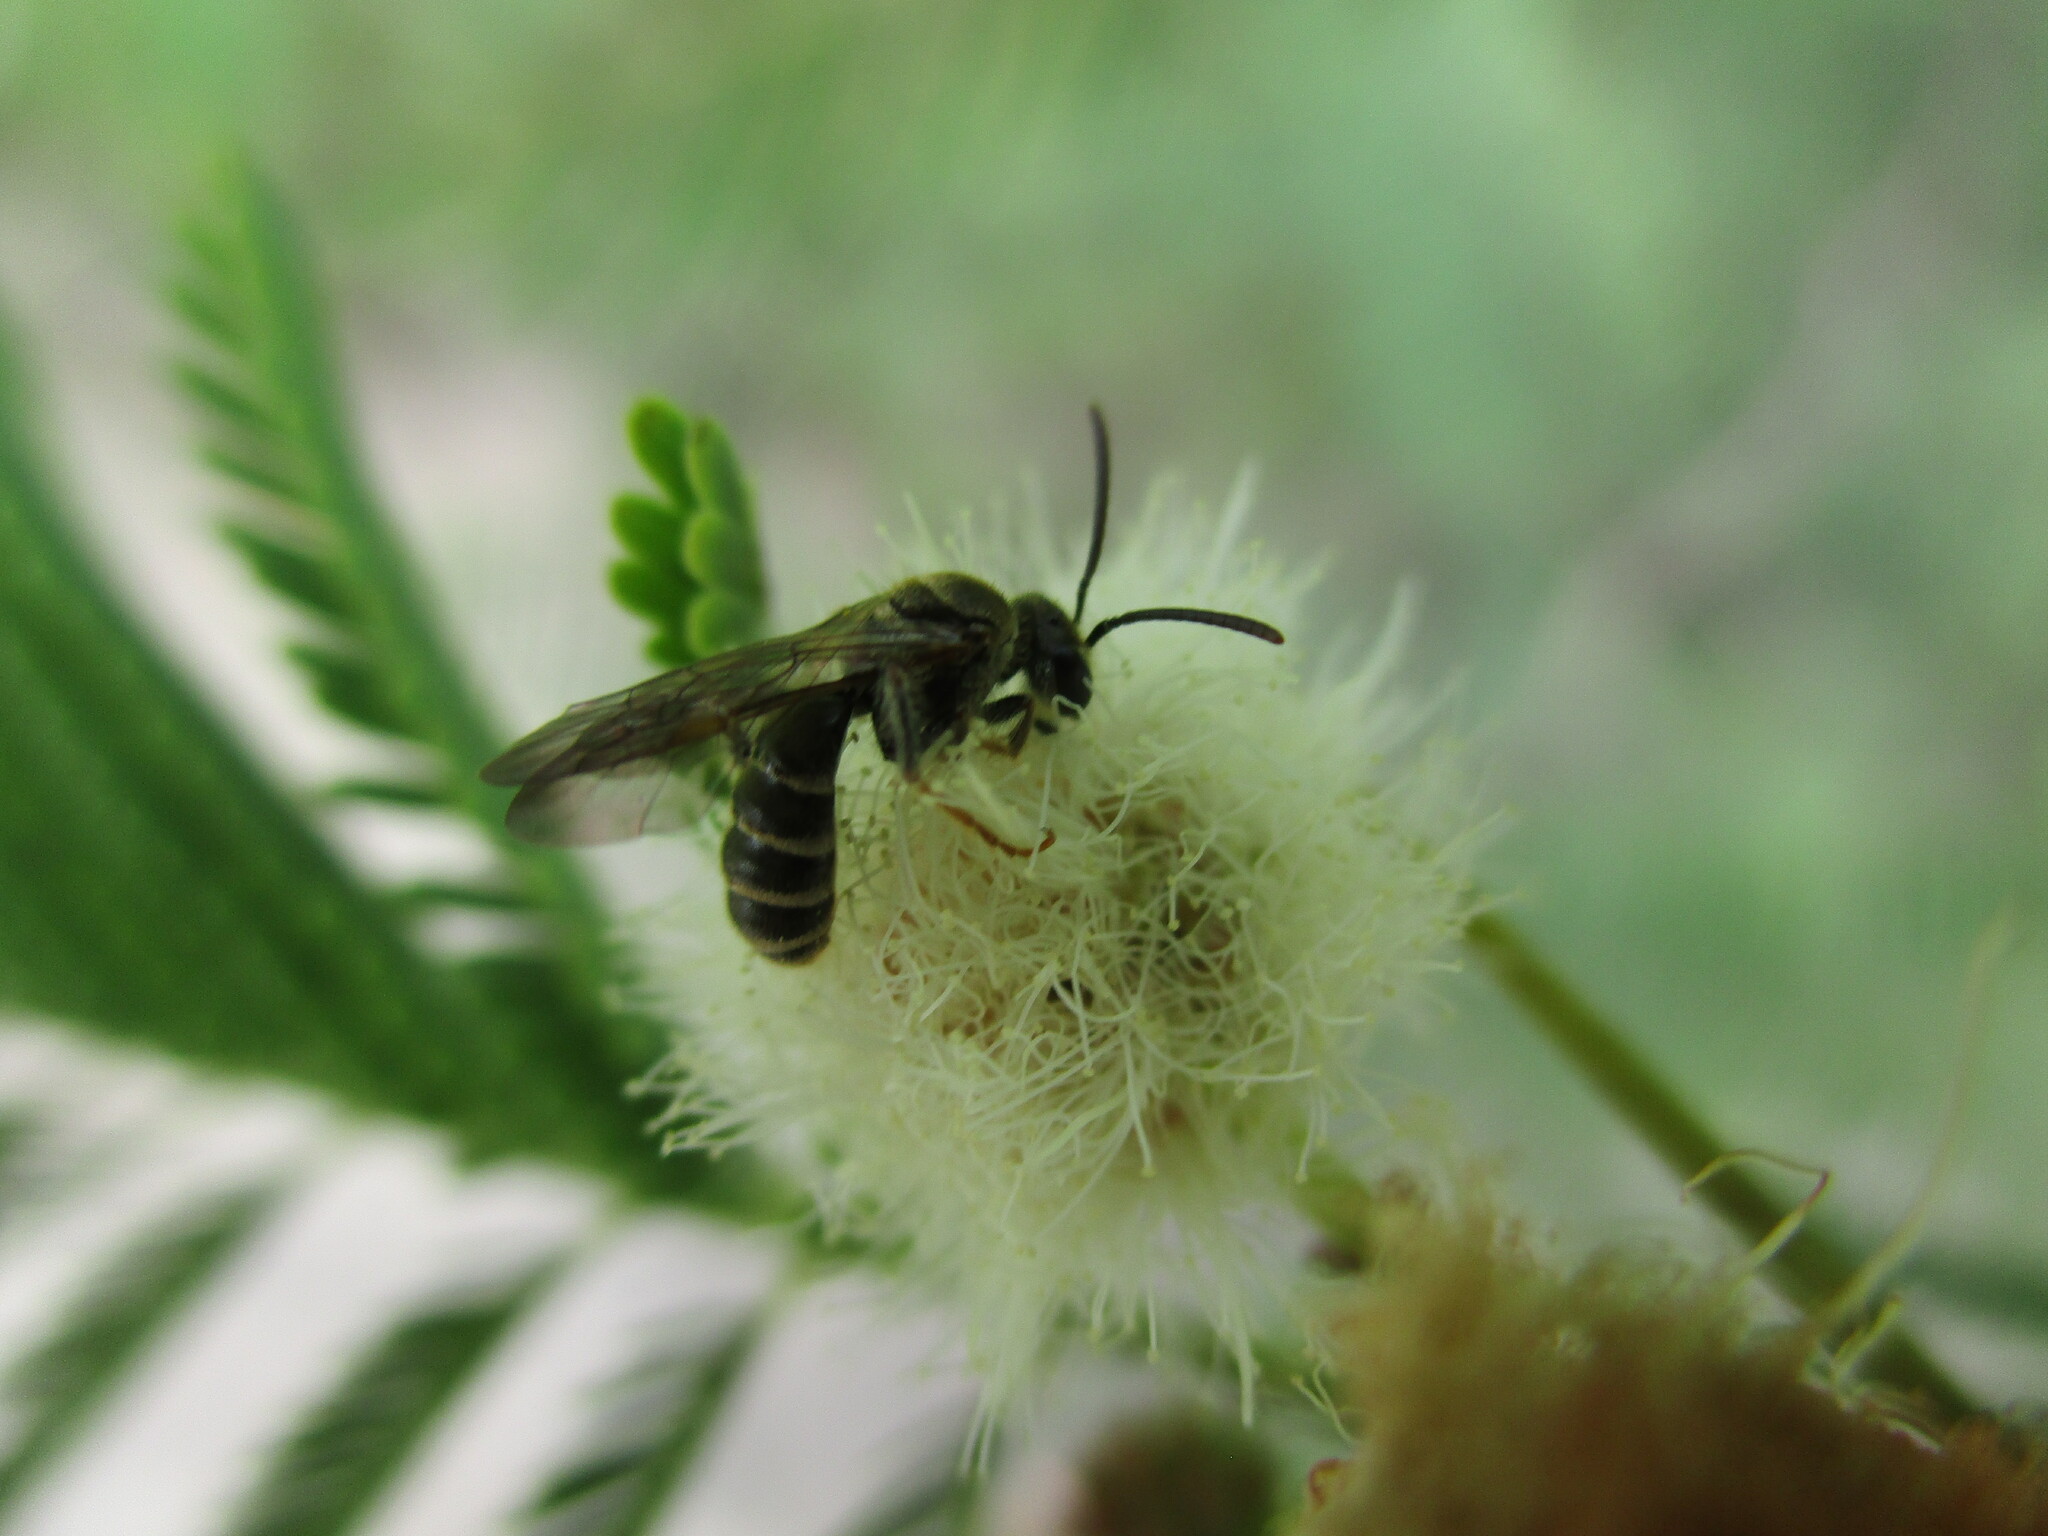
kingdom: Plantae
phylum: Tracheophyta
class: Magnoliopsida
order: Fabales
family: Fabaceae
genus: Vachellia
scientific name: Vachellia arenaria
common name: Sand acacia
